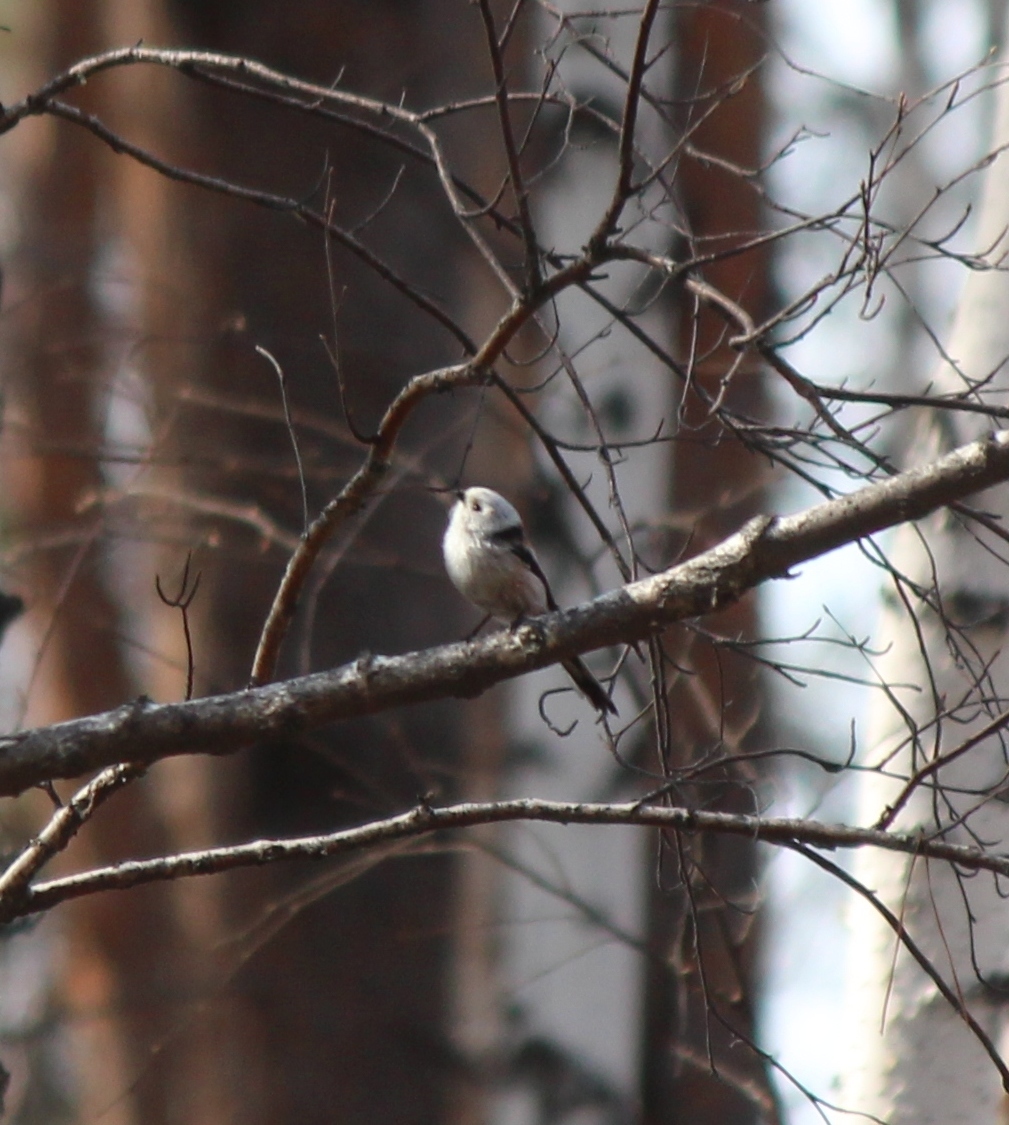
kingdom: Animalia
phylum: Chordata
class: Aves
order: Passeriformes
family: Aegithalidae
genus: Aegithalos
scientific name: Aegithalos caudatus
